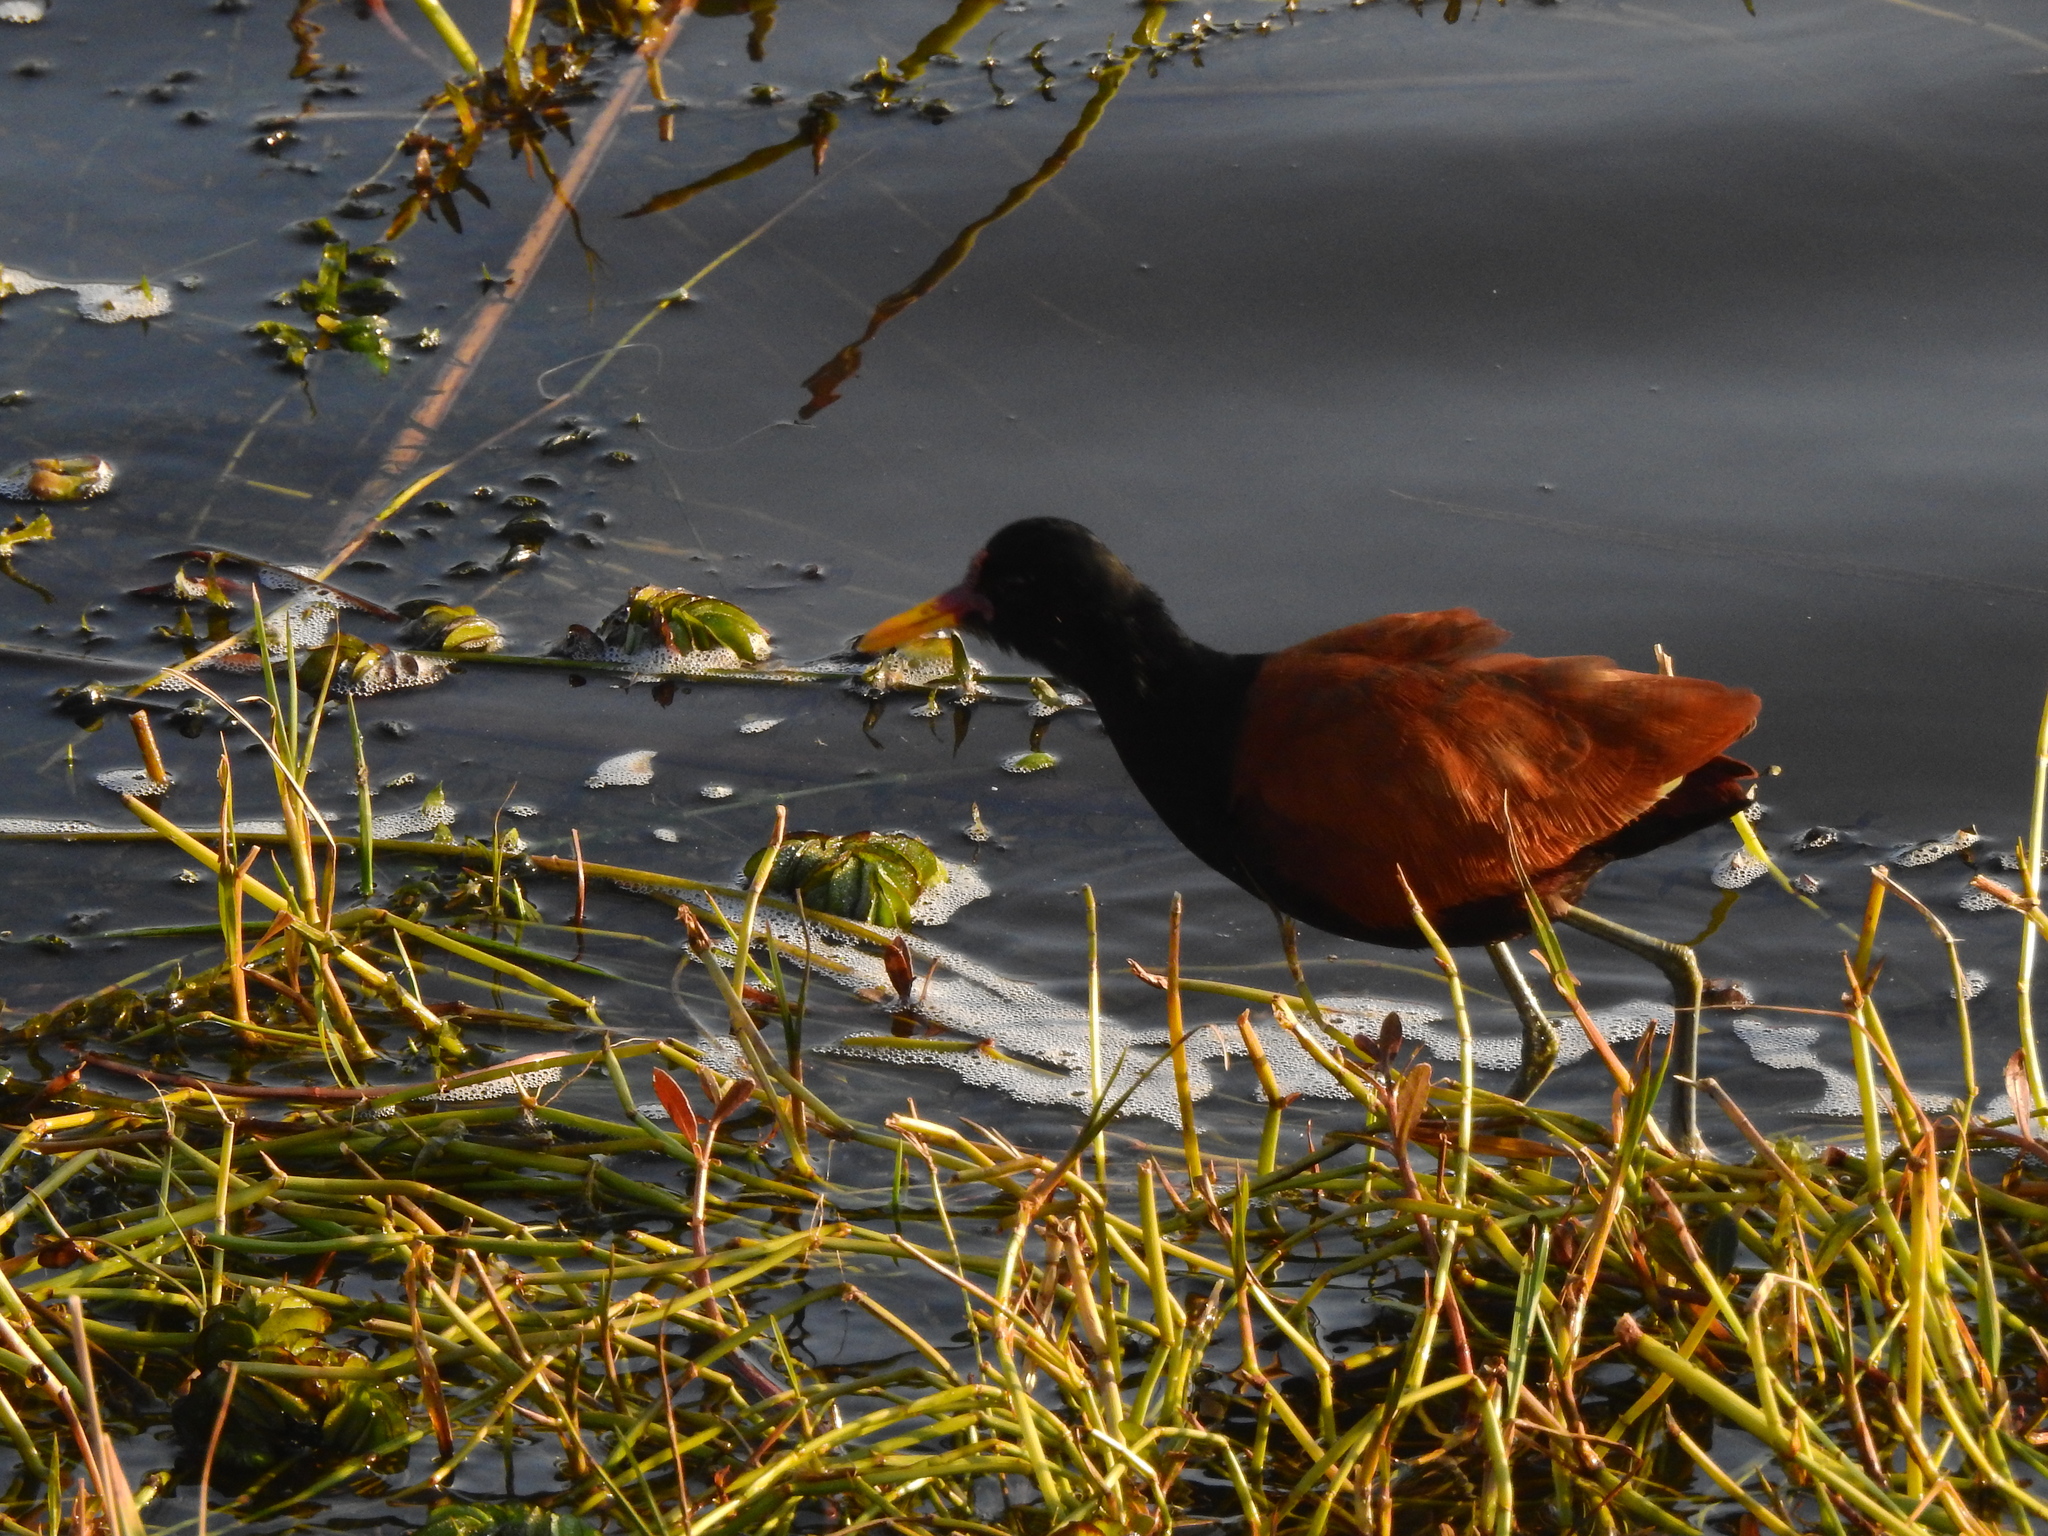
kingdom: Animalia
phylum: Chordata
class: Aves
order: Charadriiformes
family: Jacanidae
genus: Jacana
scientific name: Jacana jacana
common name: Wattled jacana
